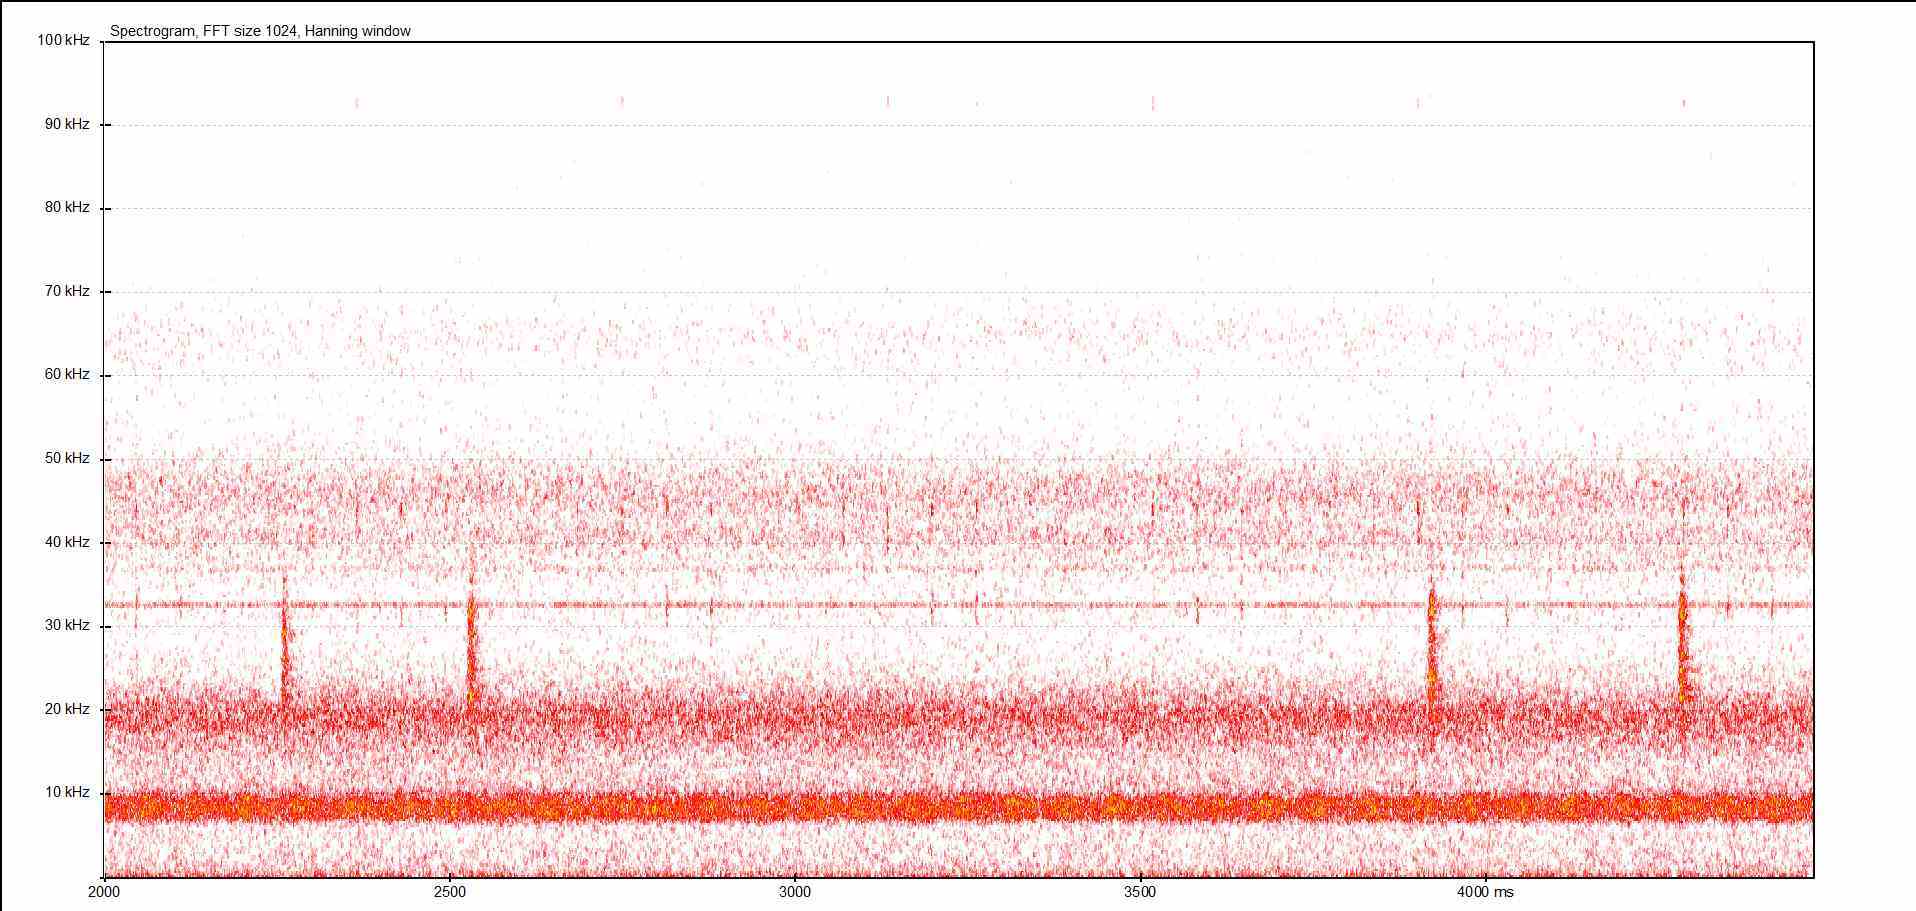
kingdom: Animalia
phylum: Arthropoda
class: Insecta
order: Orthoptera
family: Tettigoniidae
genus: Barbitistes
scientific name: Barbitistes serricauda
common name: Saw-tailed bush-cricket
